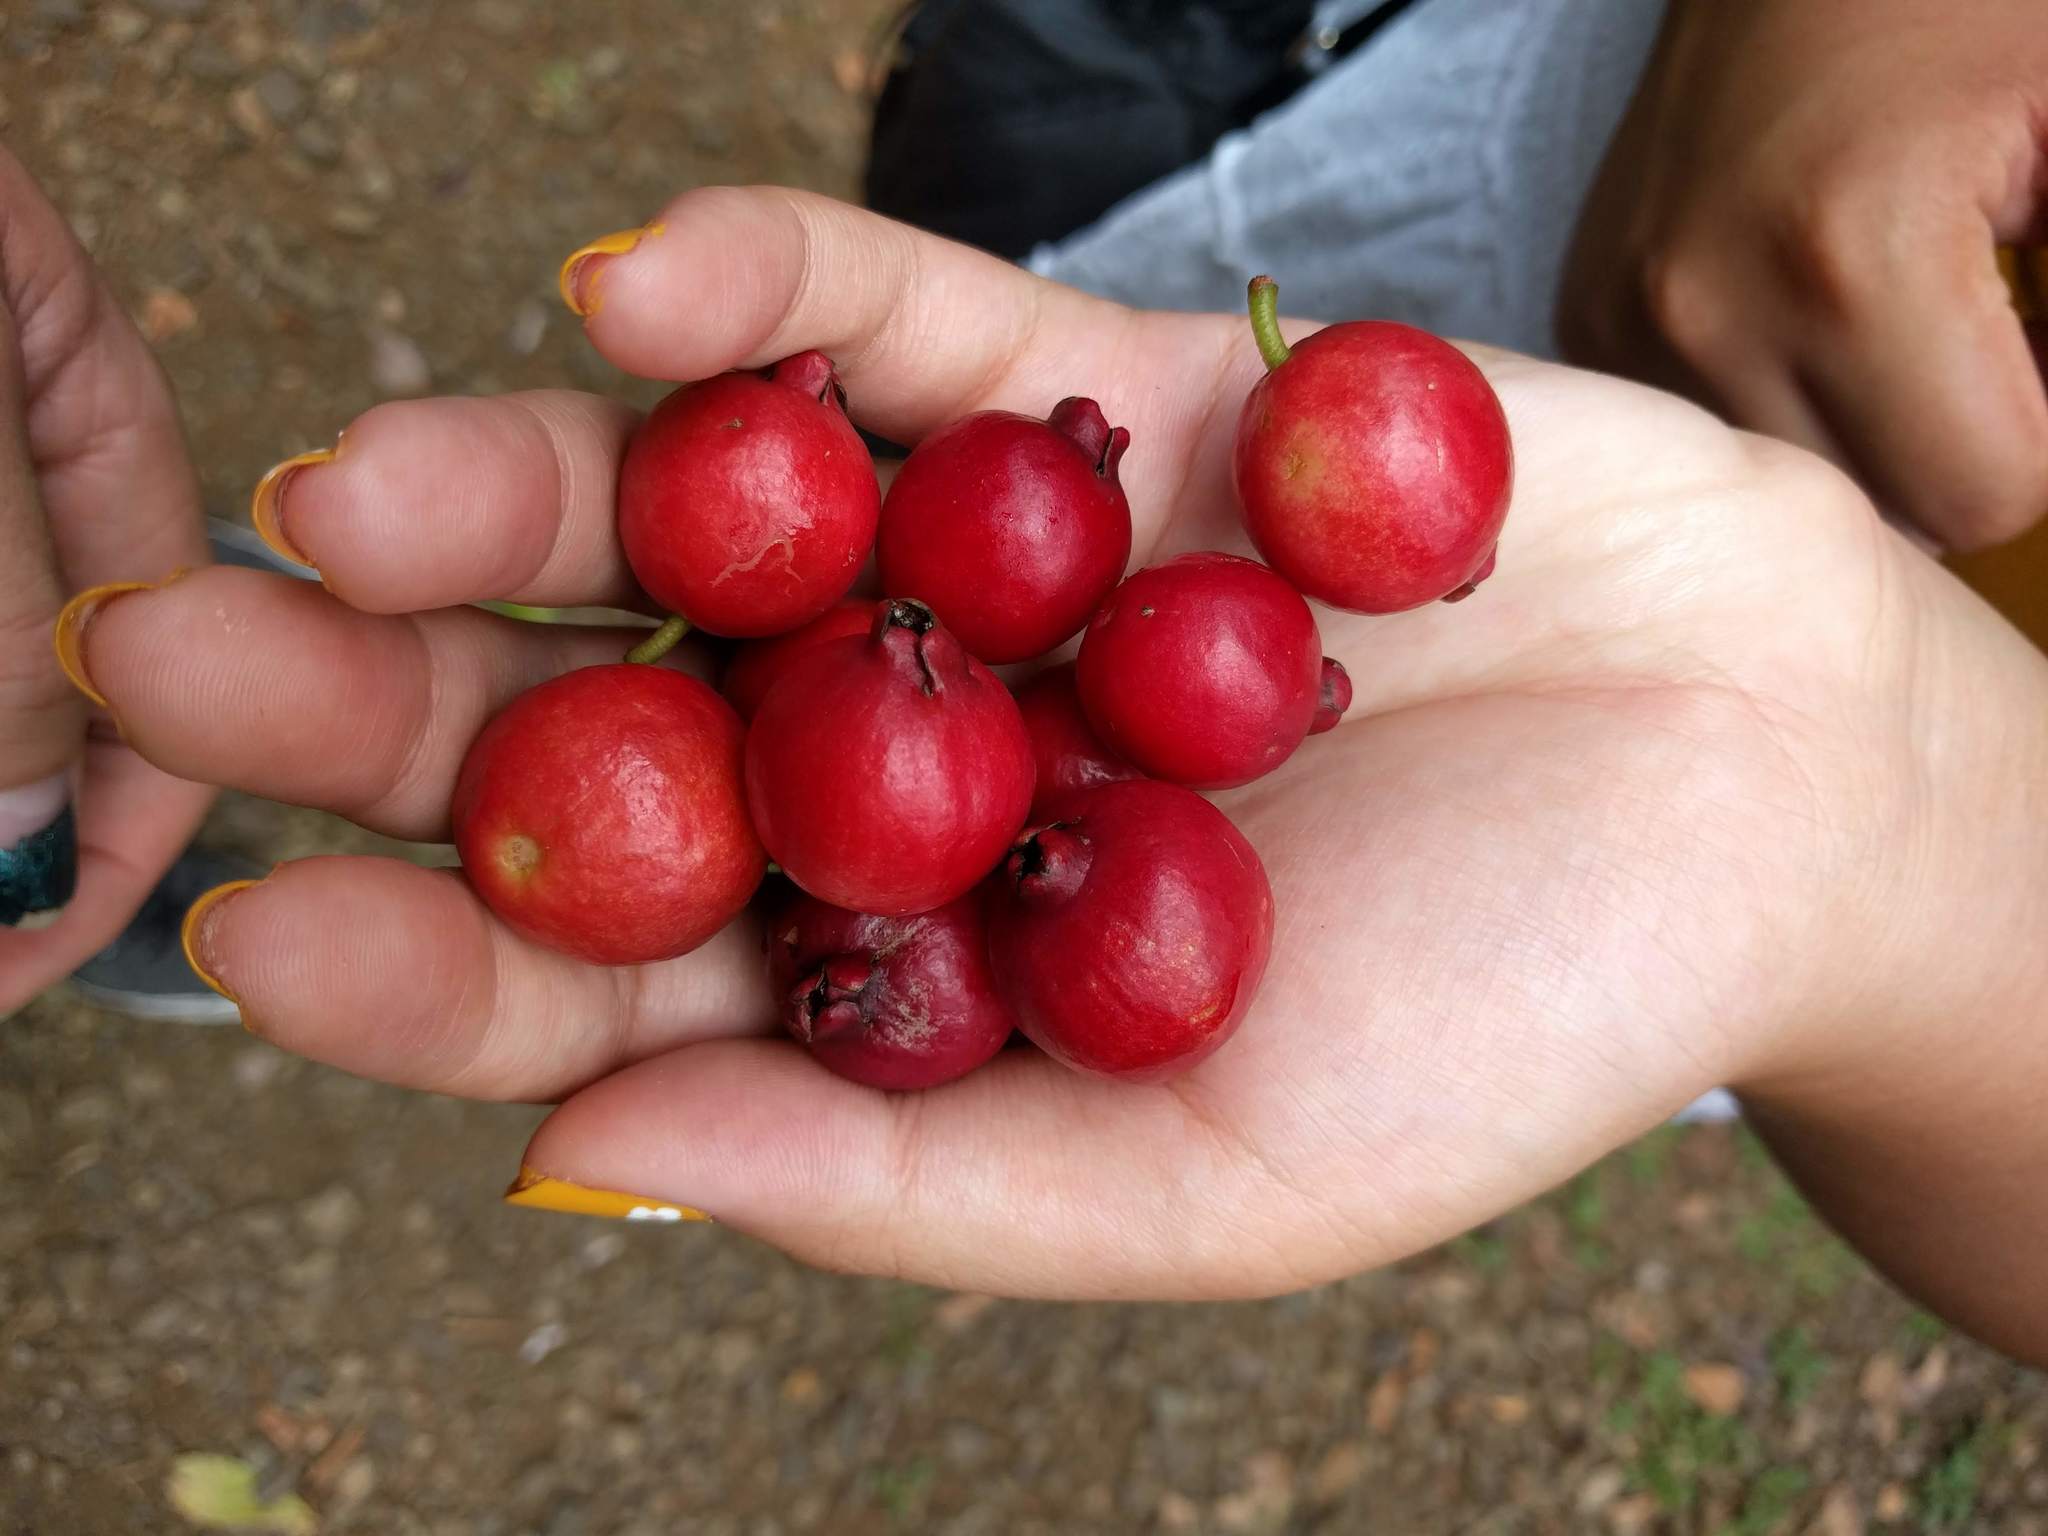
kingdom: Plantae
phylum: Tracheophyta
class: Magnoliopsida
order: Myrtales
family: Myrtaceae
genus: Psidium
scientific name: Psidium cattleianum
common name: Strawberry guava
